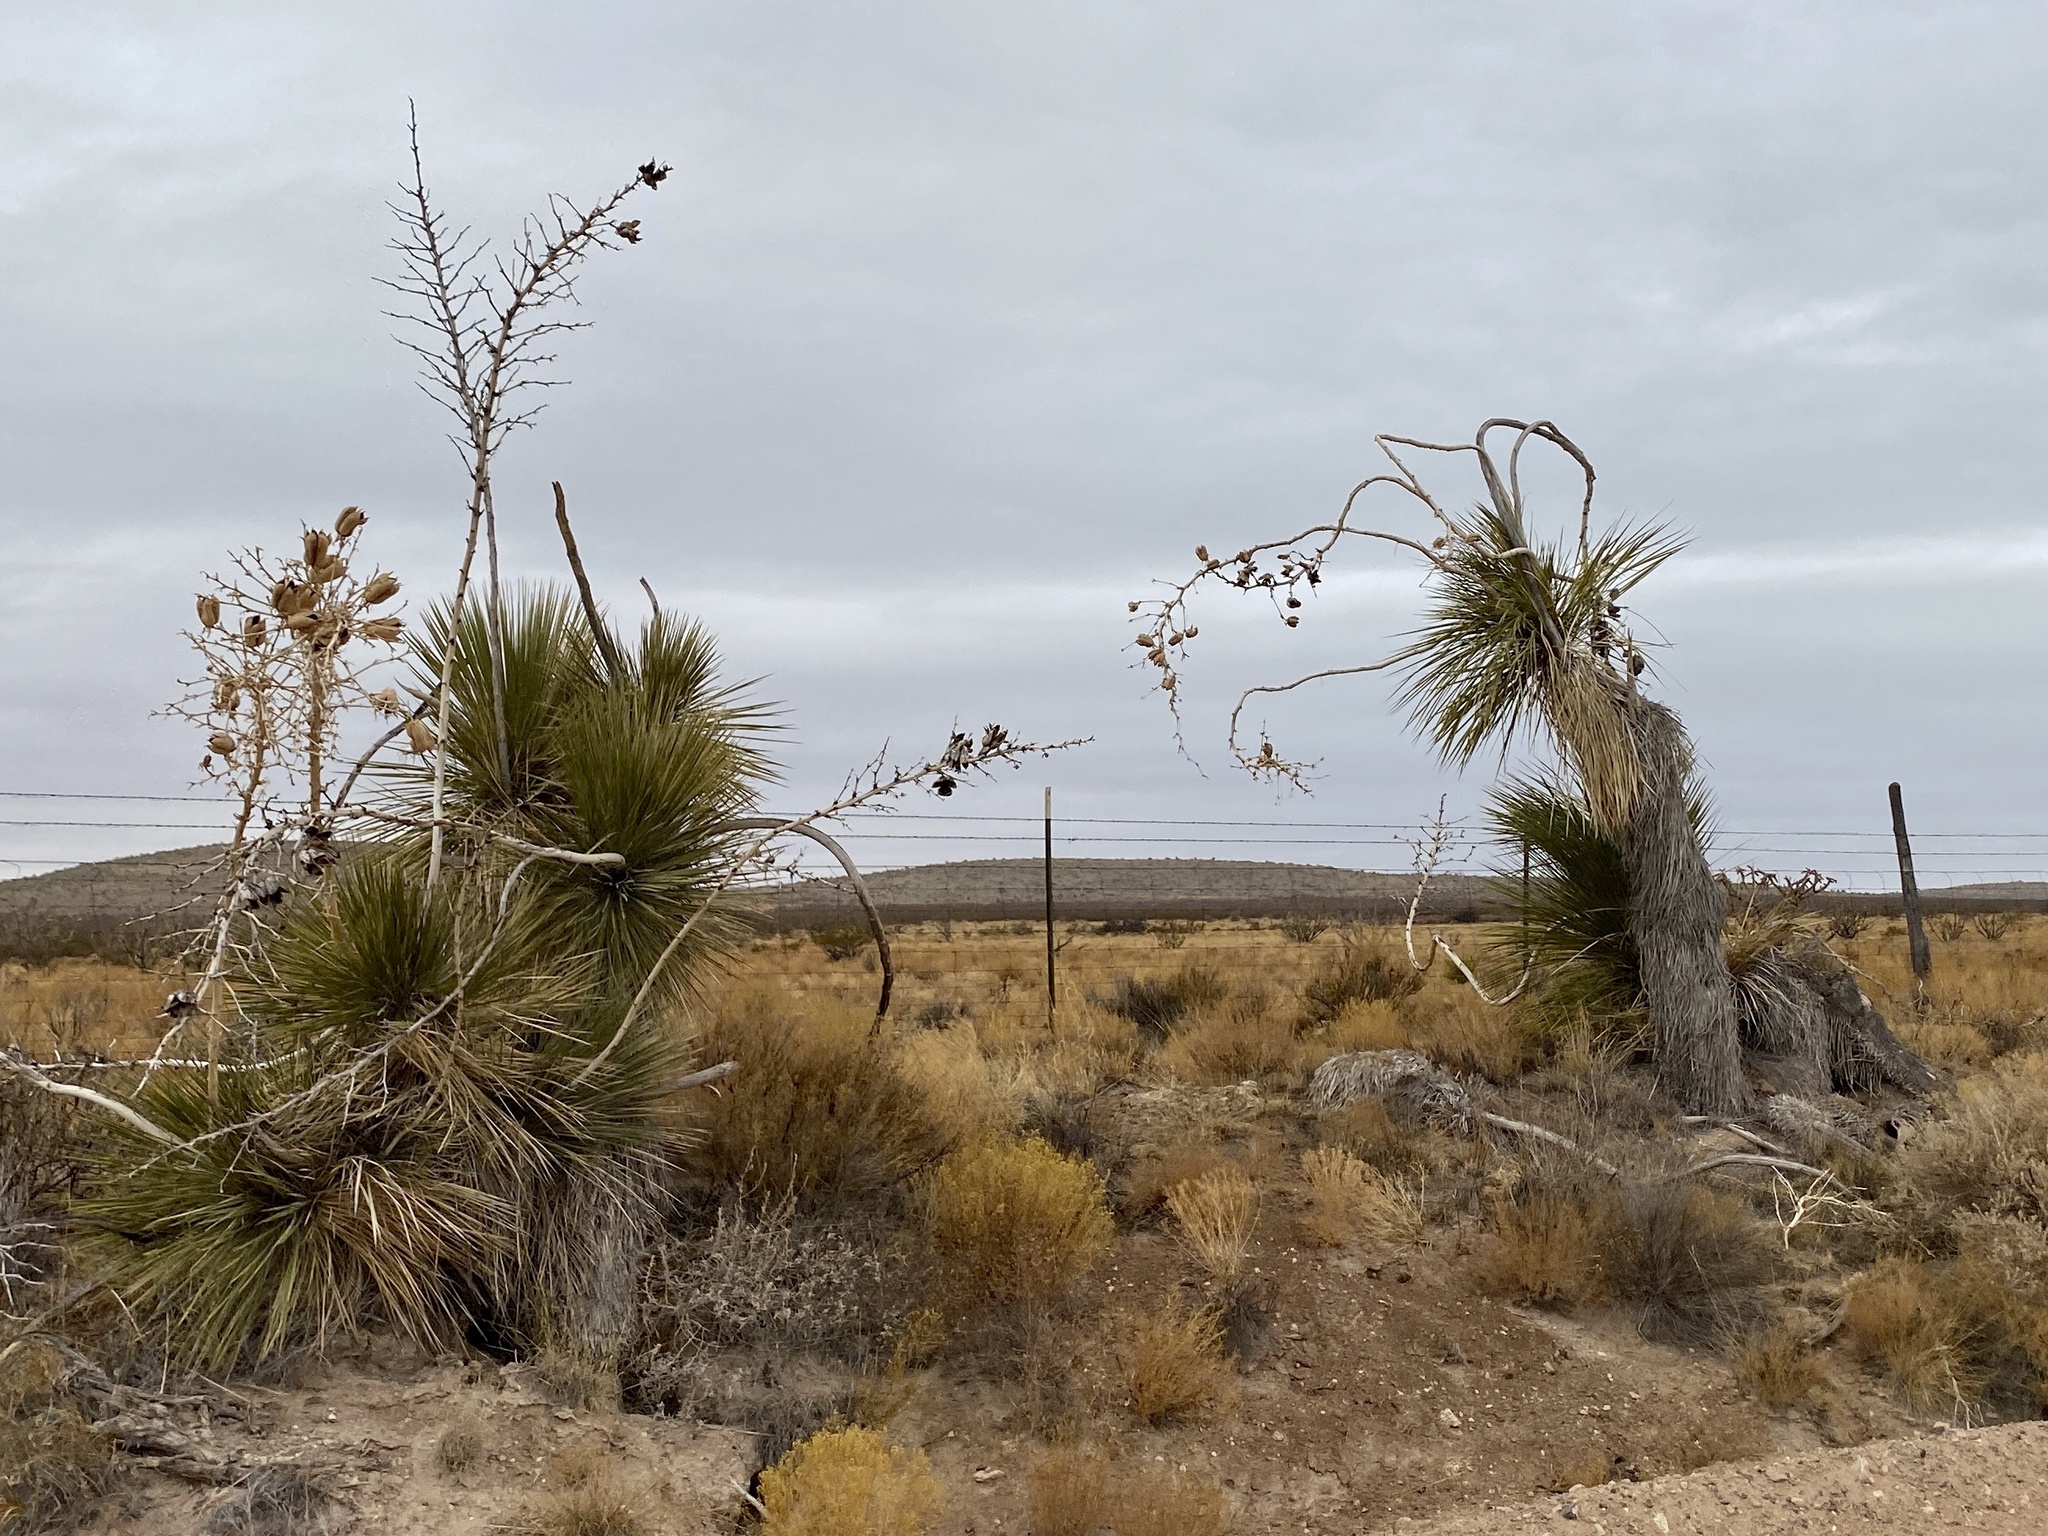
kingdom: Plantae
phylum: Tracheophyta
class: Liliopsida
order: Asparagales
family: Asparagaceae
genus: Yucca
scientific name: Yucca elata
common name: Palmella
